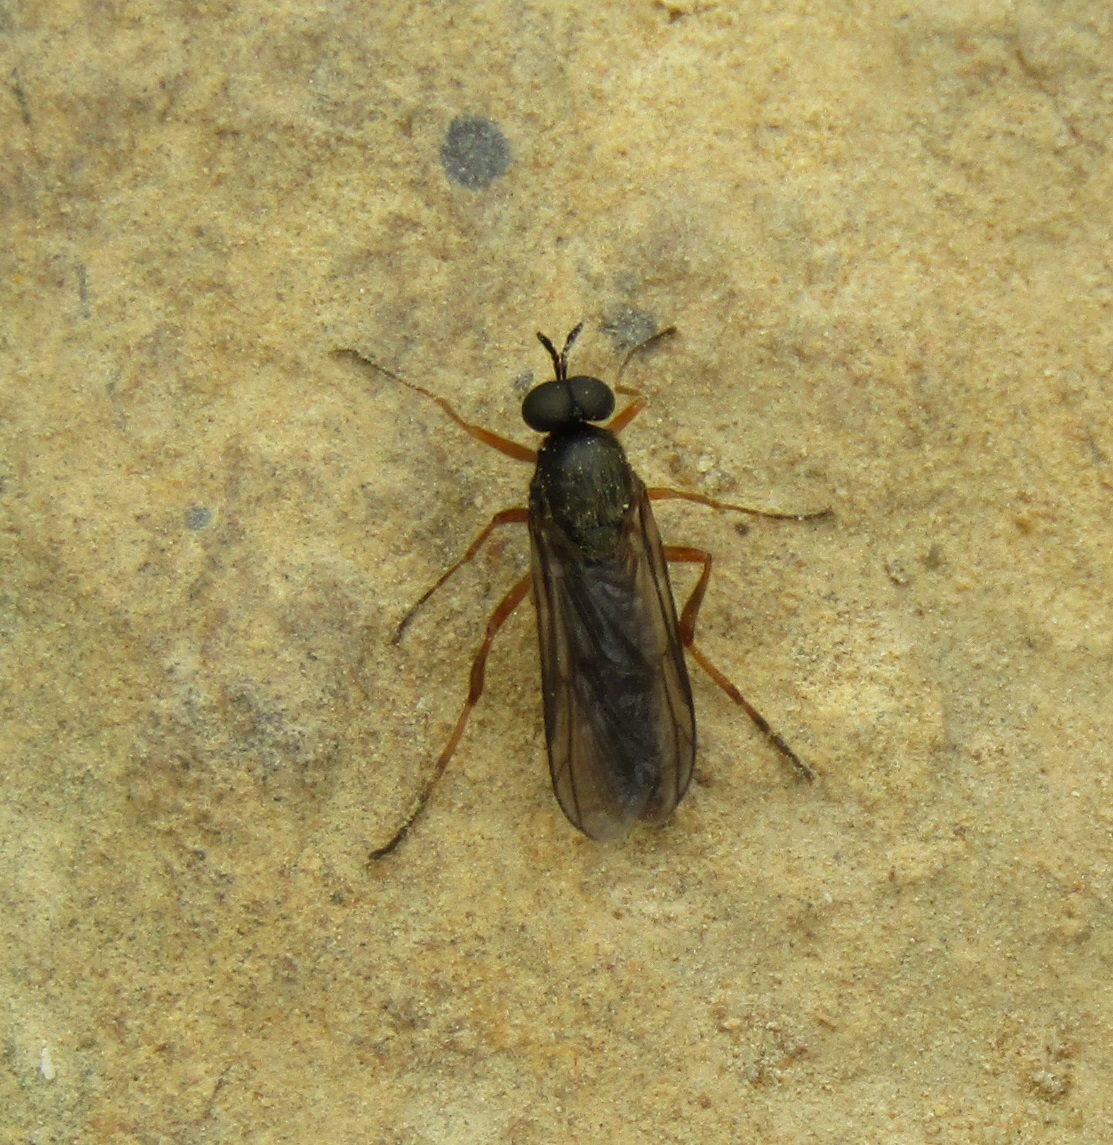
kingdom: Animalia
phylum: Arthropoda
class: Insecta
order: Diptera
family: Stratiomyidae
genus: Inopus
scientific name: Inopus rubriceps
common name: Soldier fly
